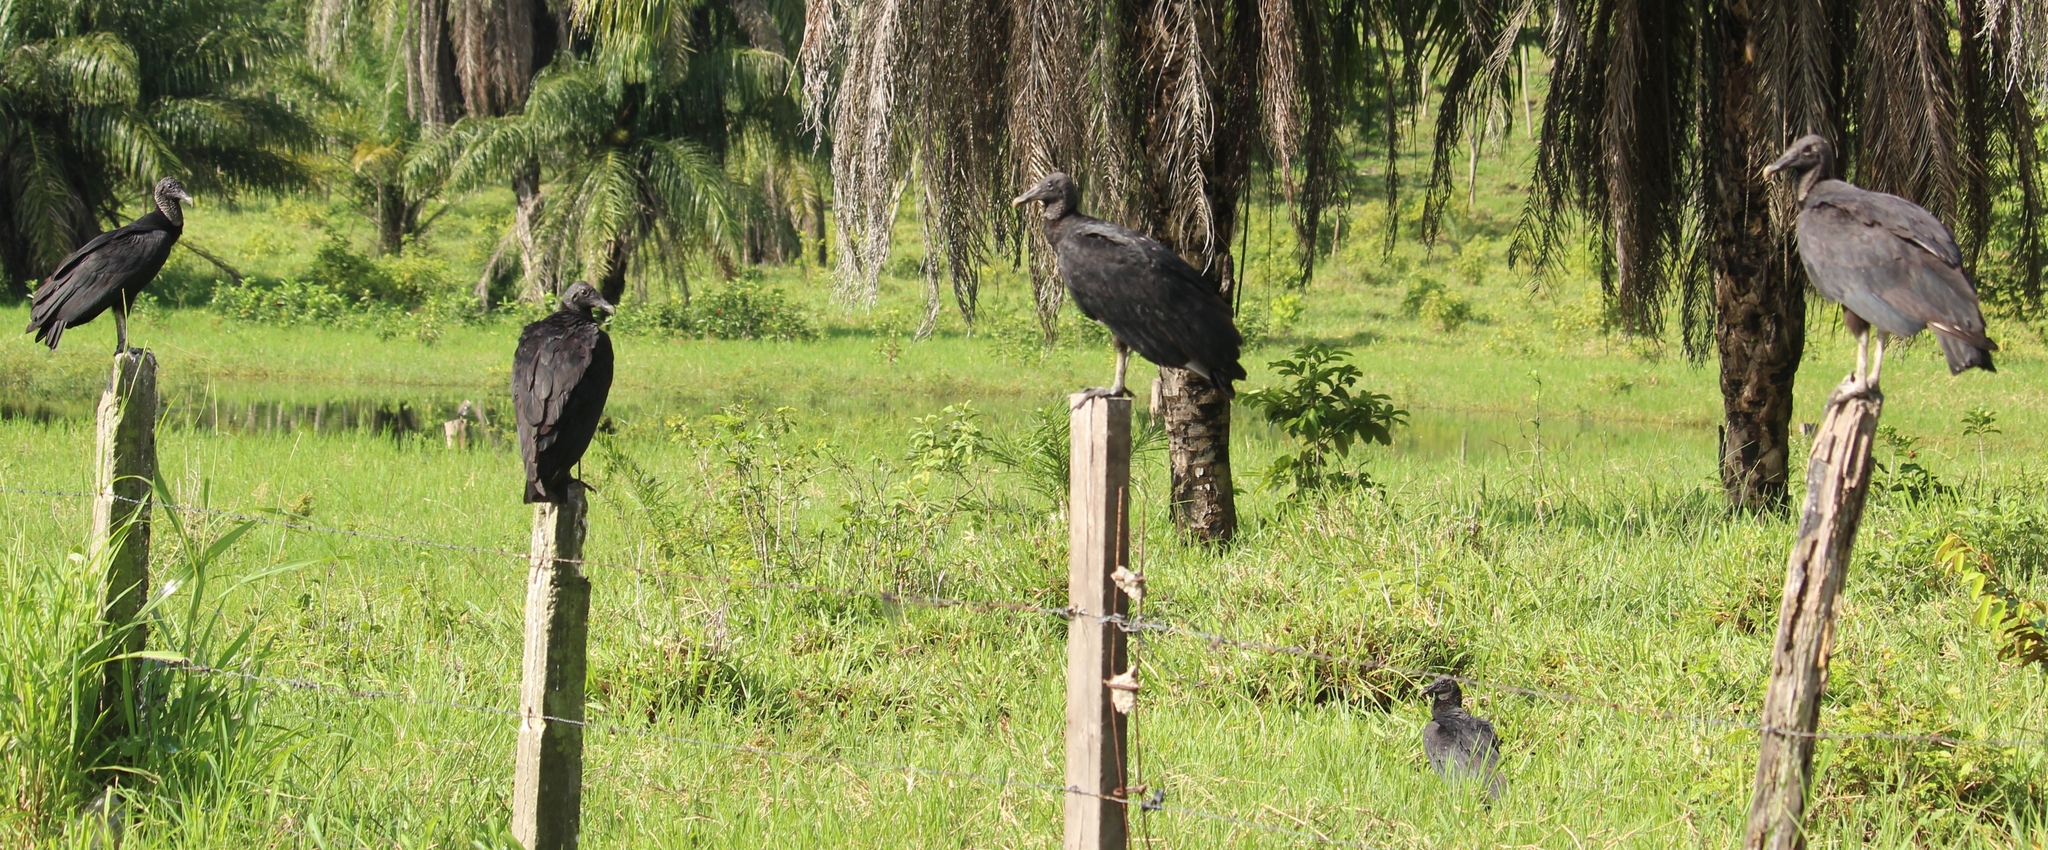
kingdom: Animalia
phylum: Chordata
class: Aves
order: Accipitriformes
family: Cathartidae
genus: Coragyps
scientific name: Coragyps atratus
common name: Black vulture
